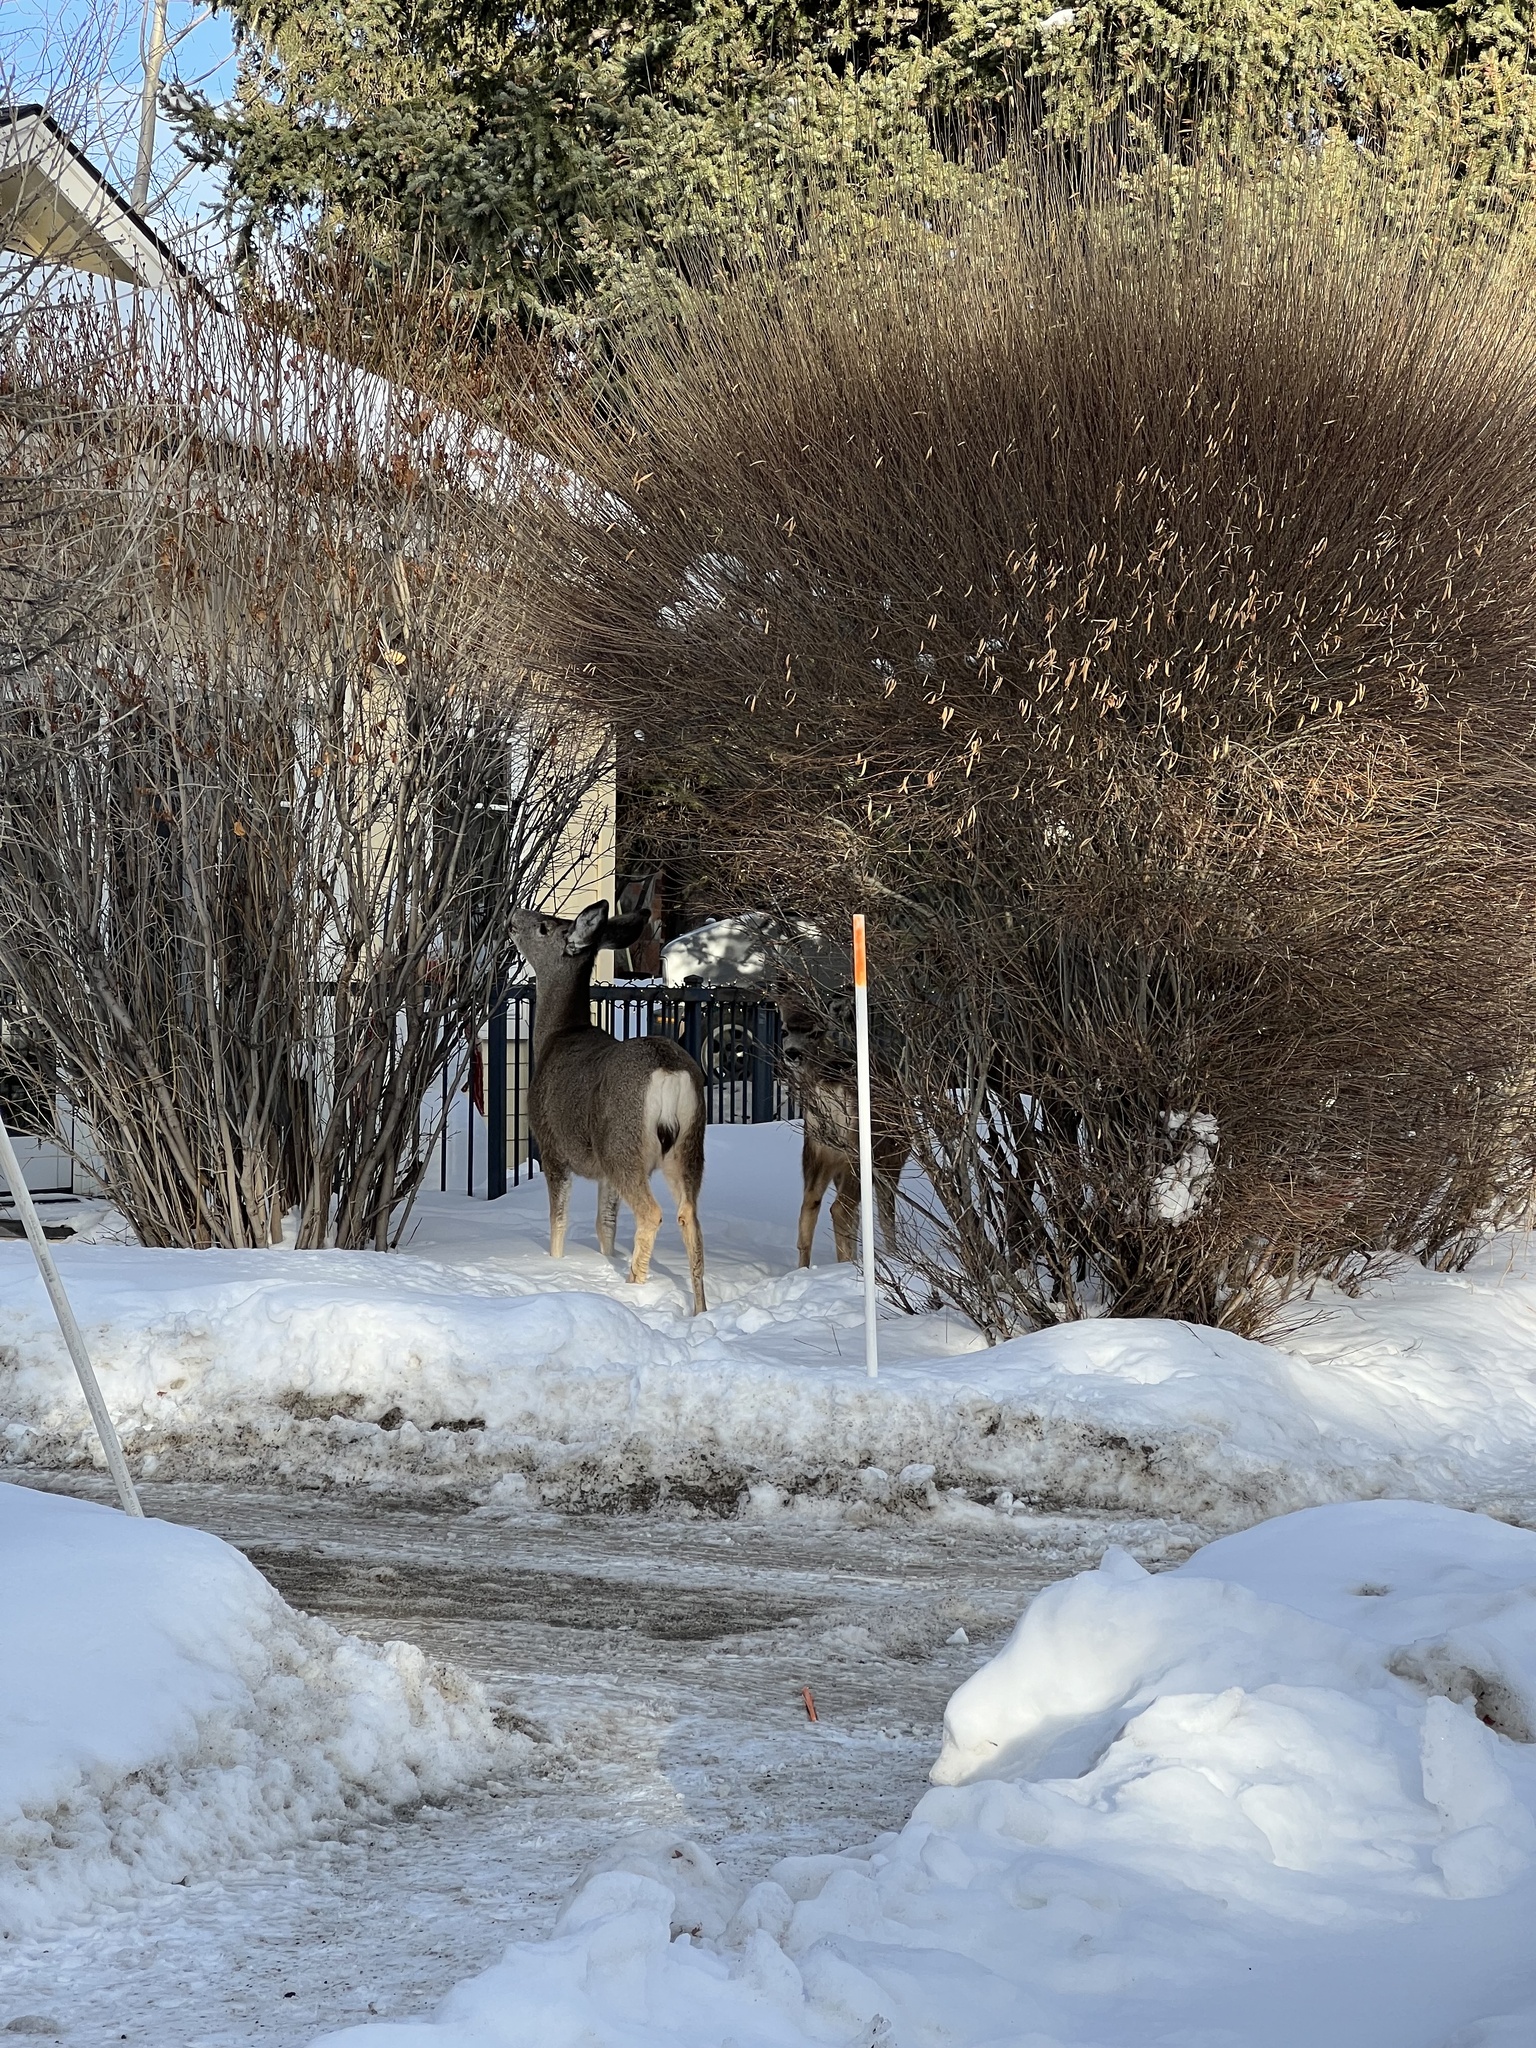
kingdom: Animalia
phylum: Chordata
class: Mammalia
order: Artiodactyla
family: Cervidae
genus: Odocoileus
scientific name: Odocoileus hemionus
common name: Mule deer
